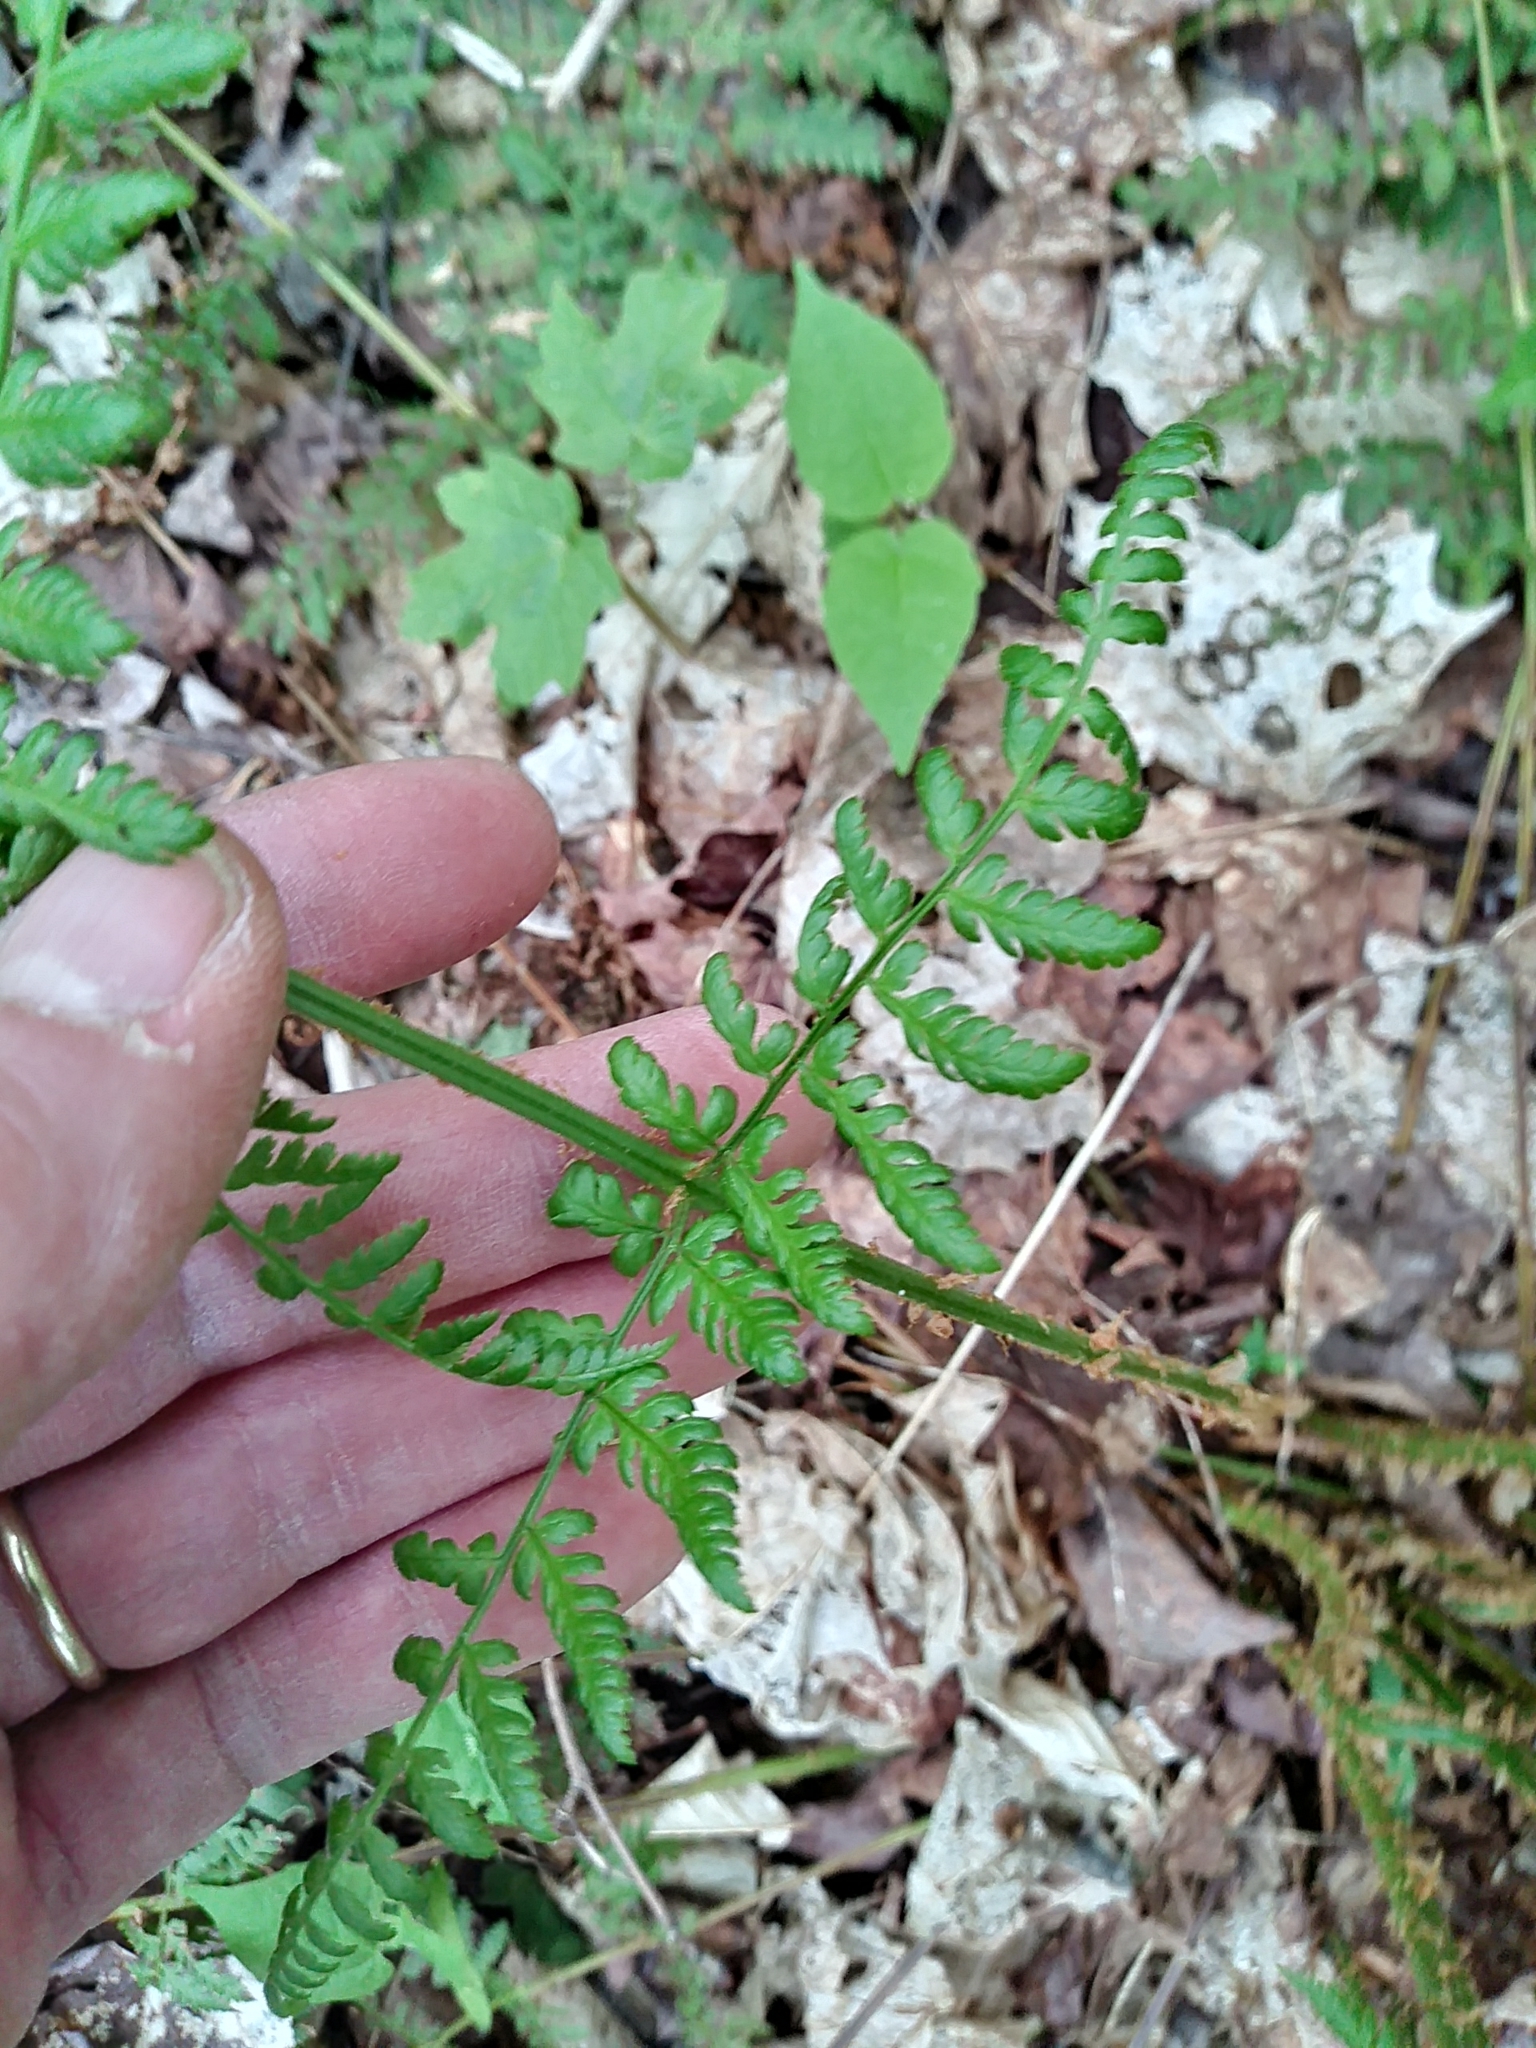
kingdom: Plantae
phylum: Tracheophyta
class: Polypodiopsida
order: Polypodiales
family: Dryopteridaceae
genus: Dryopteris
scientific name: Dryopteris intermedia
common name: Evergreen wood fern
